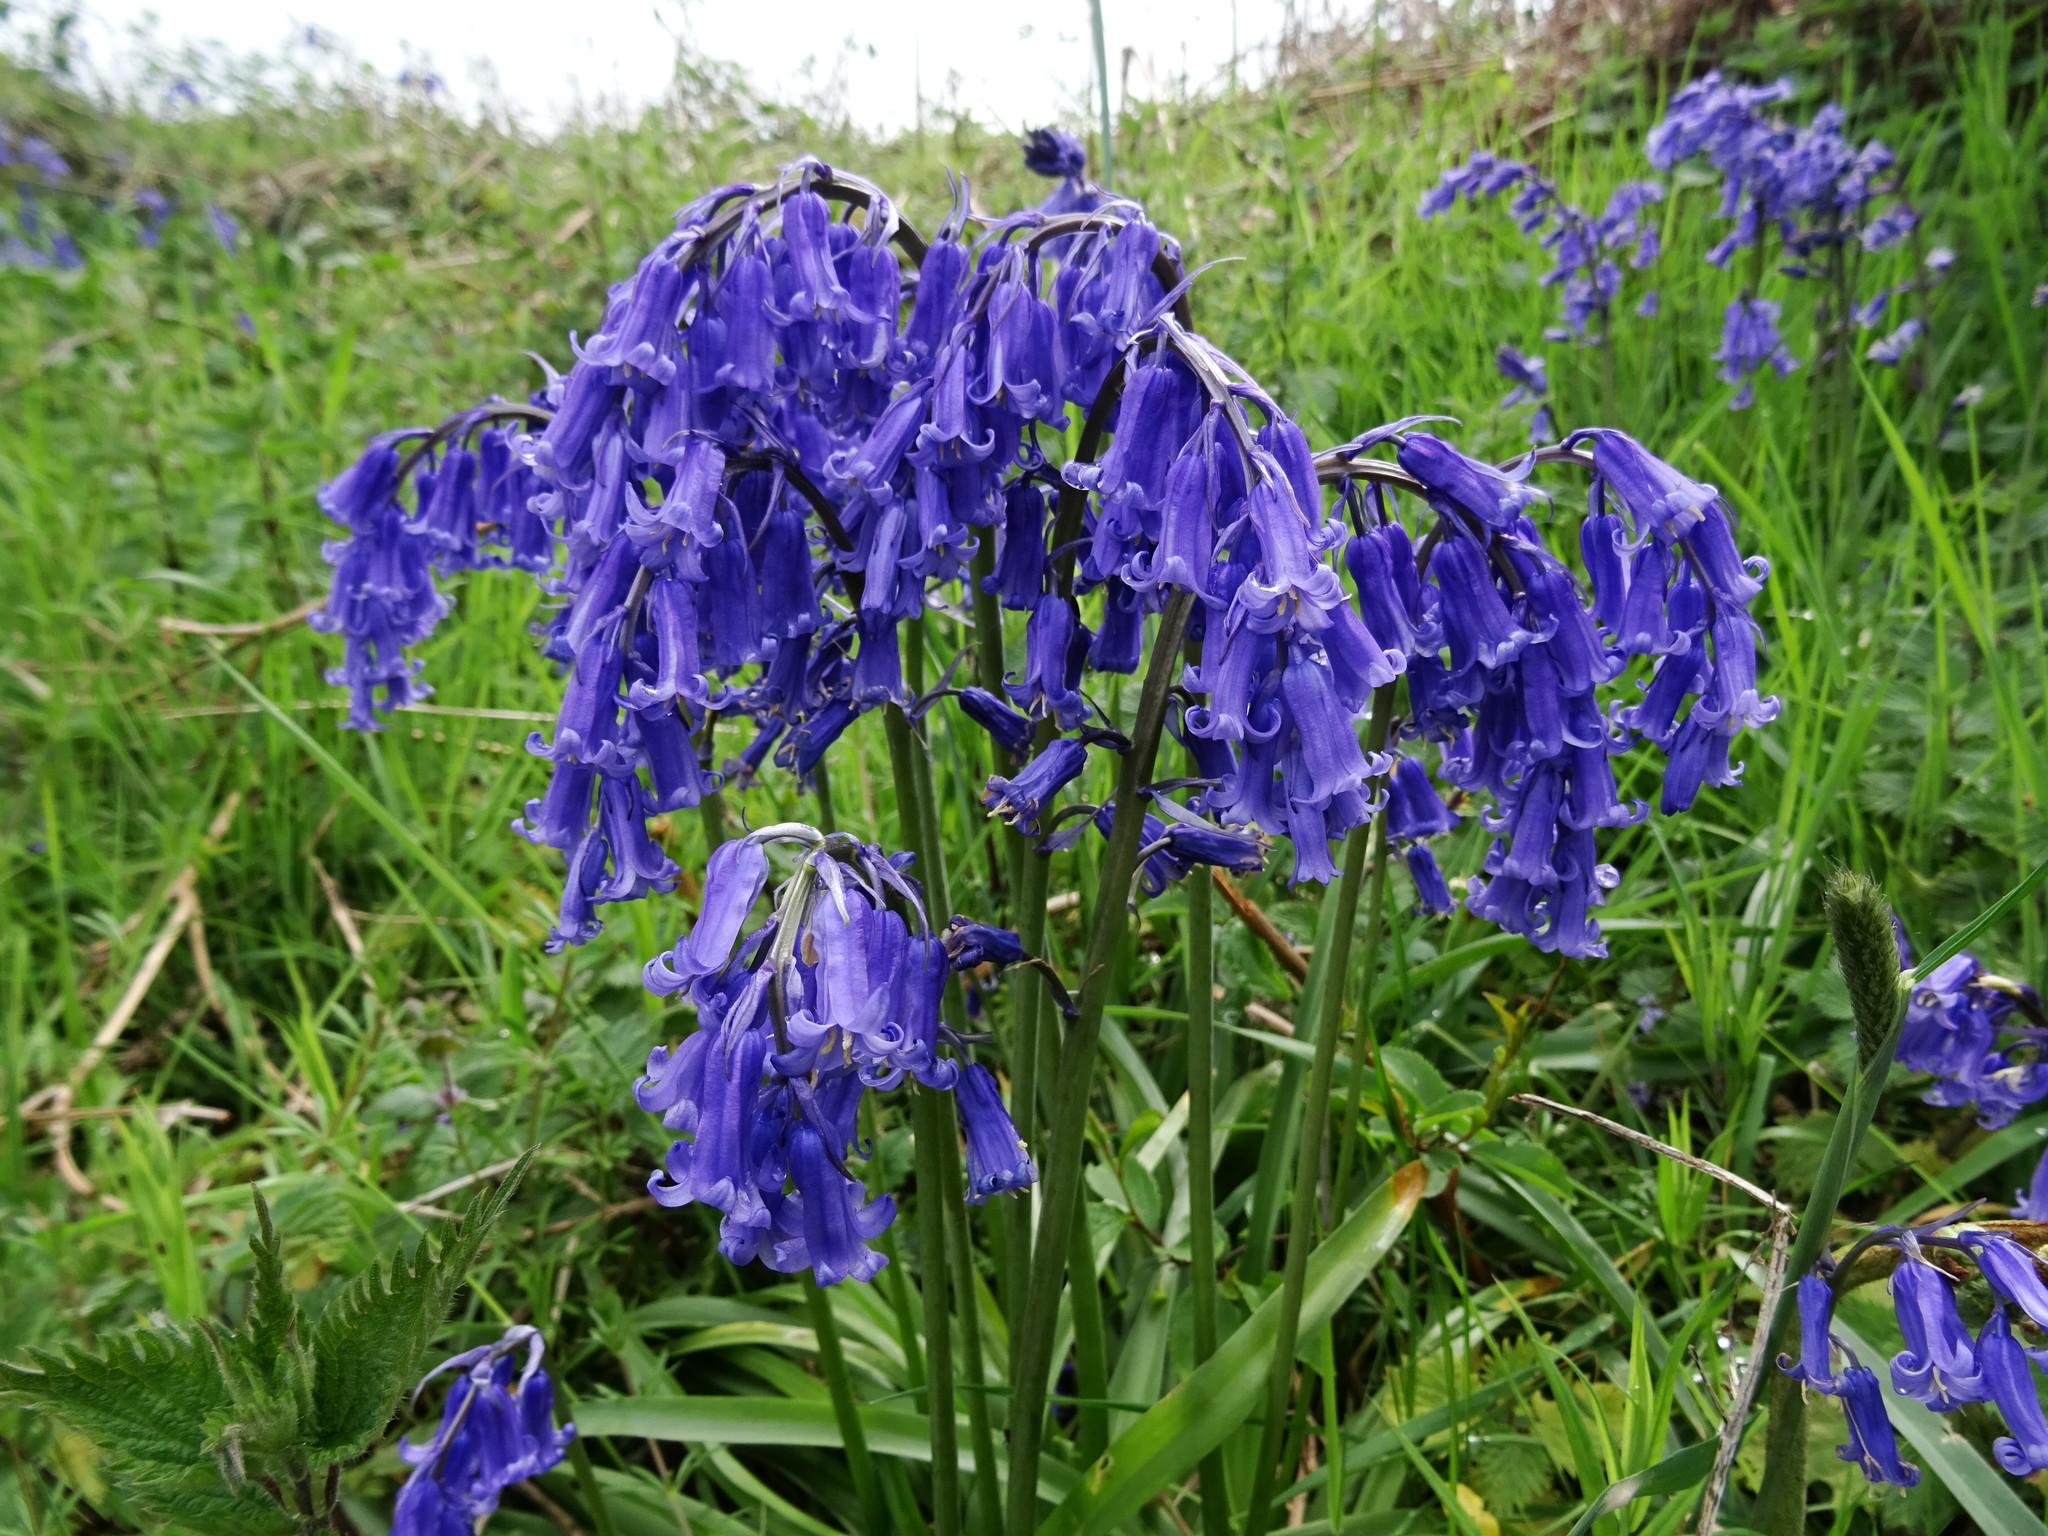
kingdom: Plantae
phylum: Tracheophyta
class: Liliopsida
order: Asparagales
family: Asparagaceae
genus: Hyacinthoides
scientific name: Hyacinthoides non-scripta
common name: Bluebell
